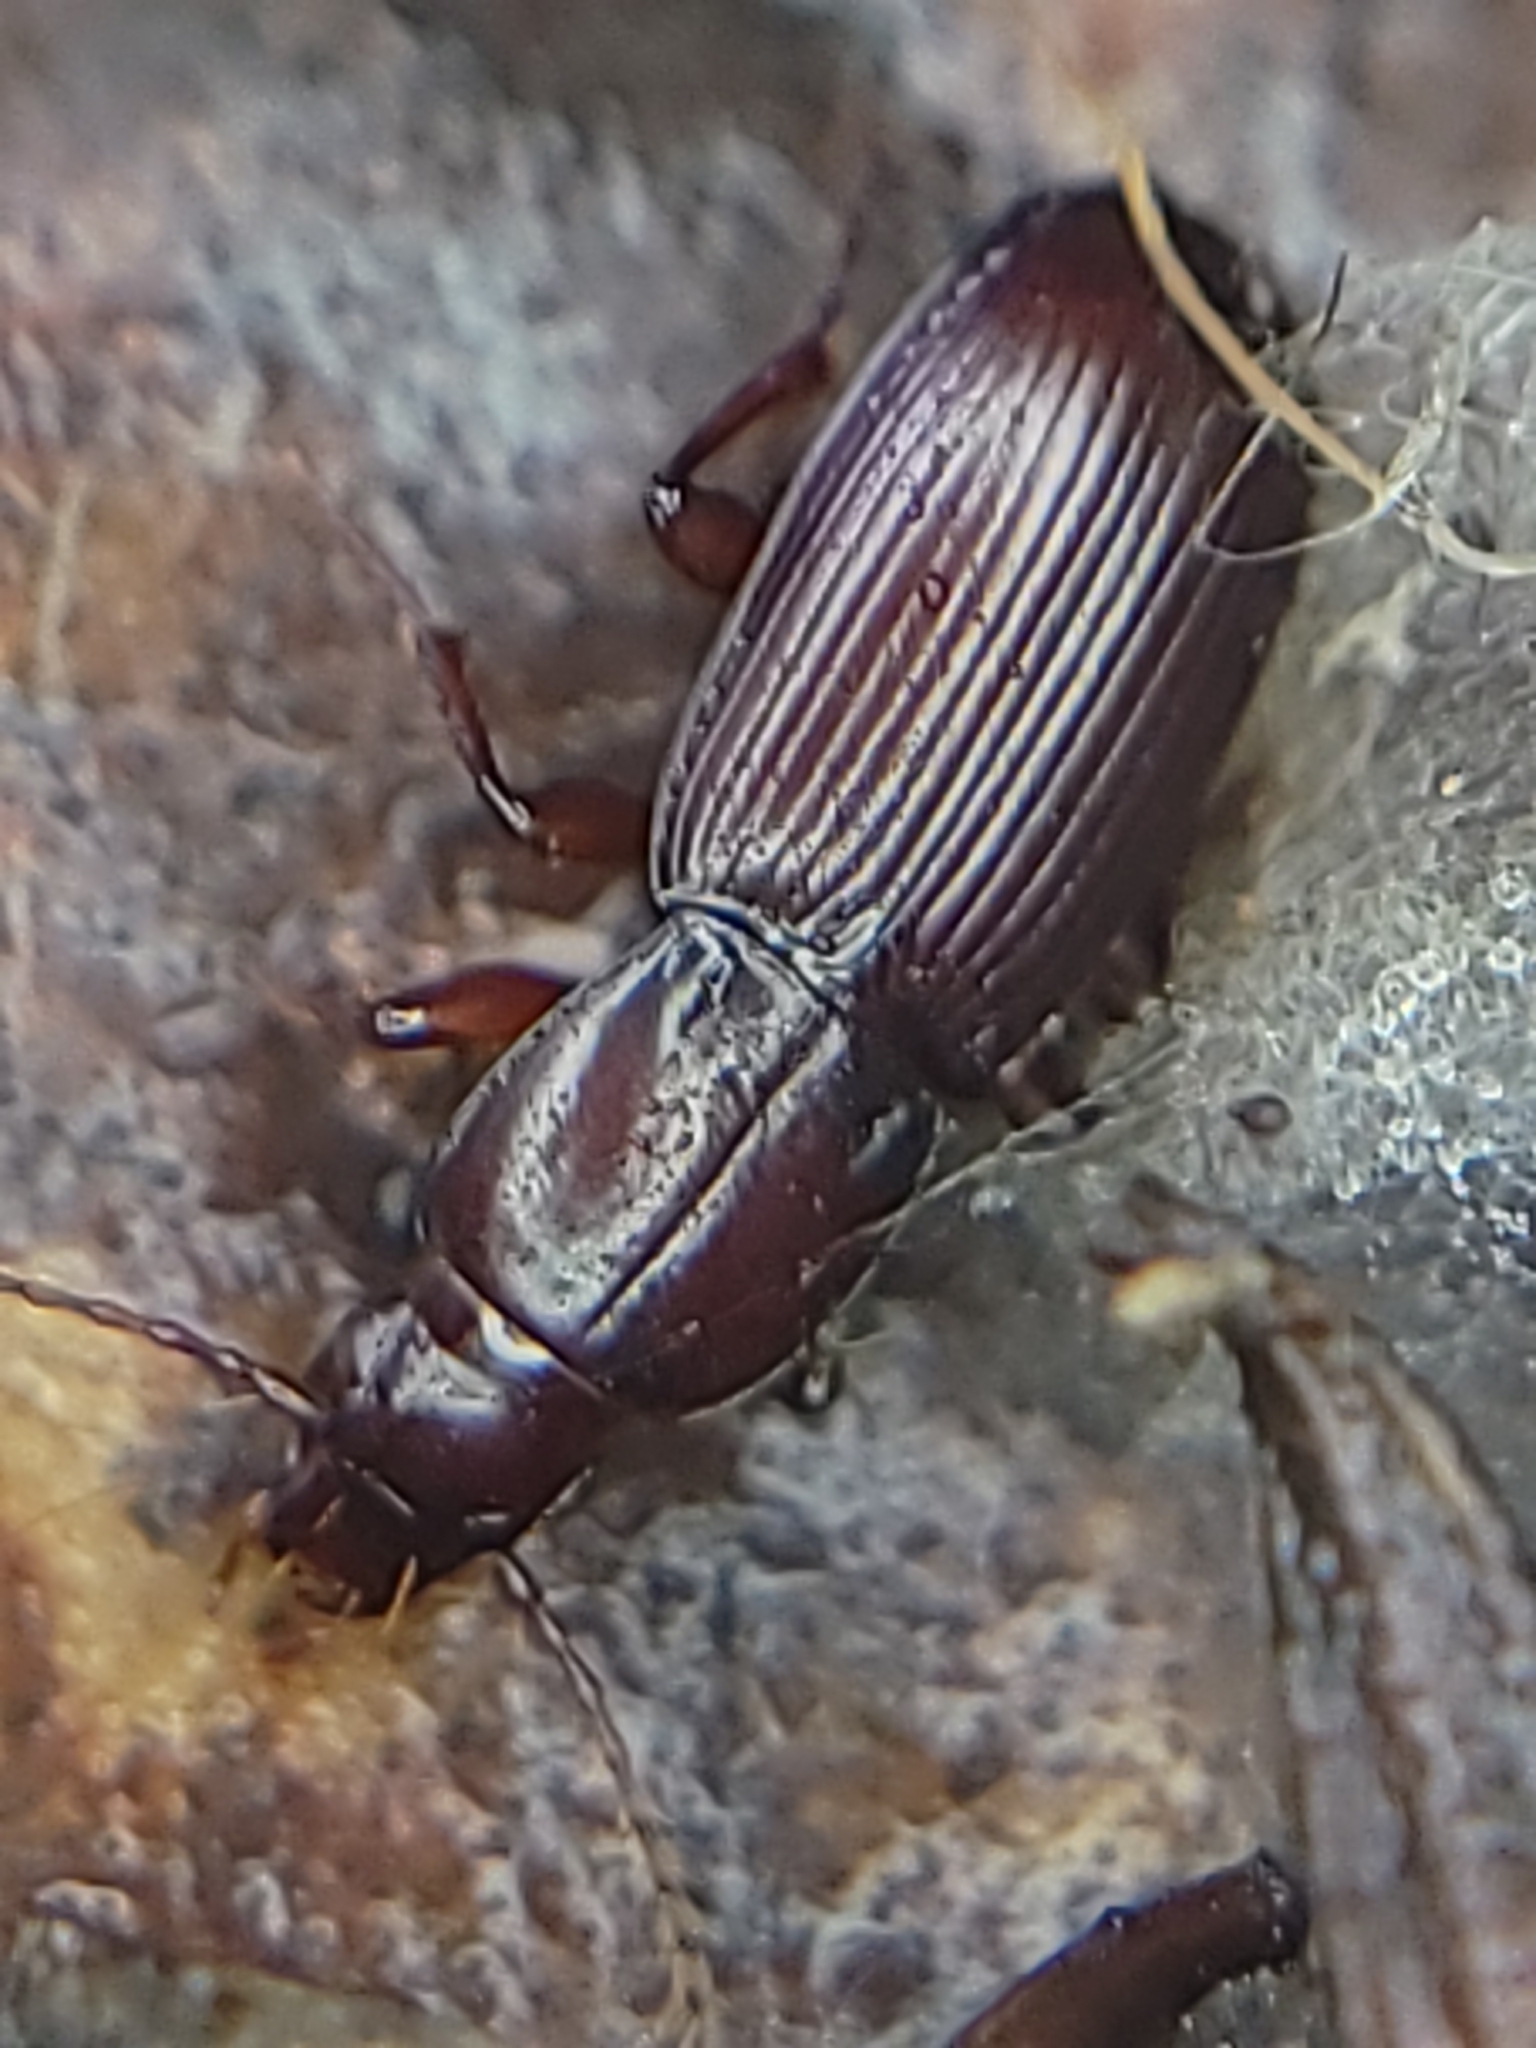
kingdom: Animalia
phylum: Arthropoda
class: Insecta
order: Coleoptera
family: Carabidae
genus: Pterostichus
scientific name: Pterostichus angustus
